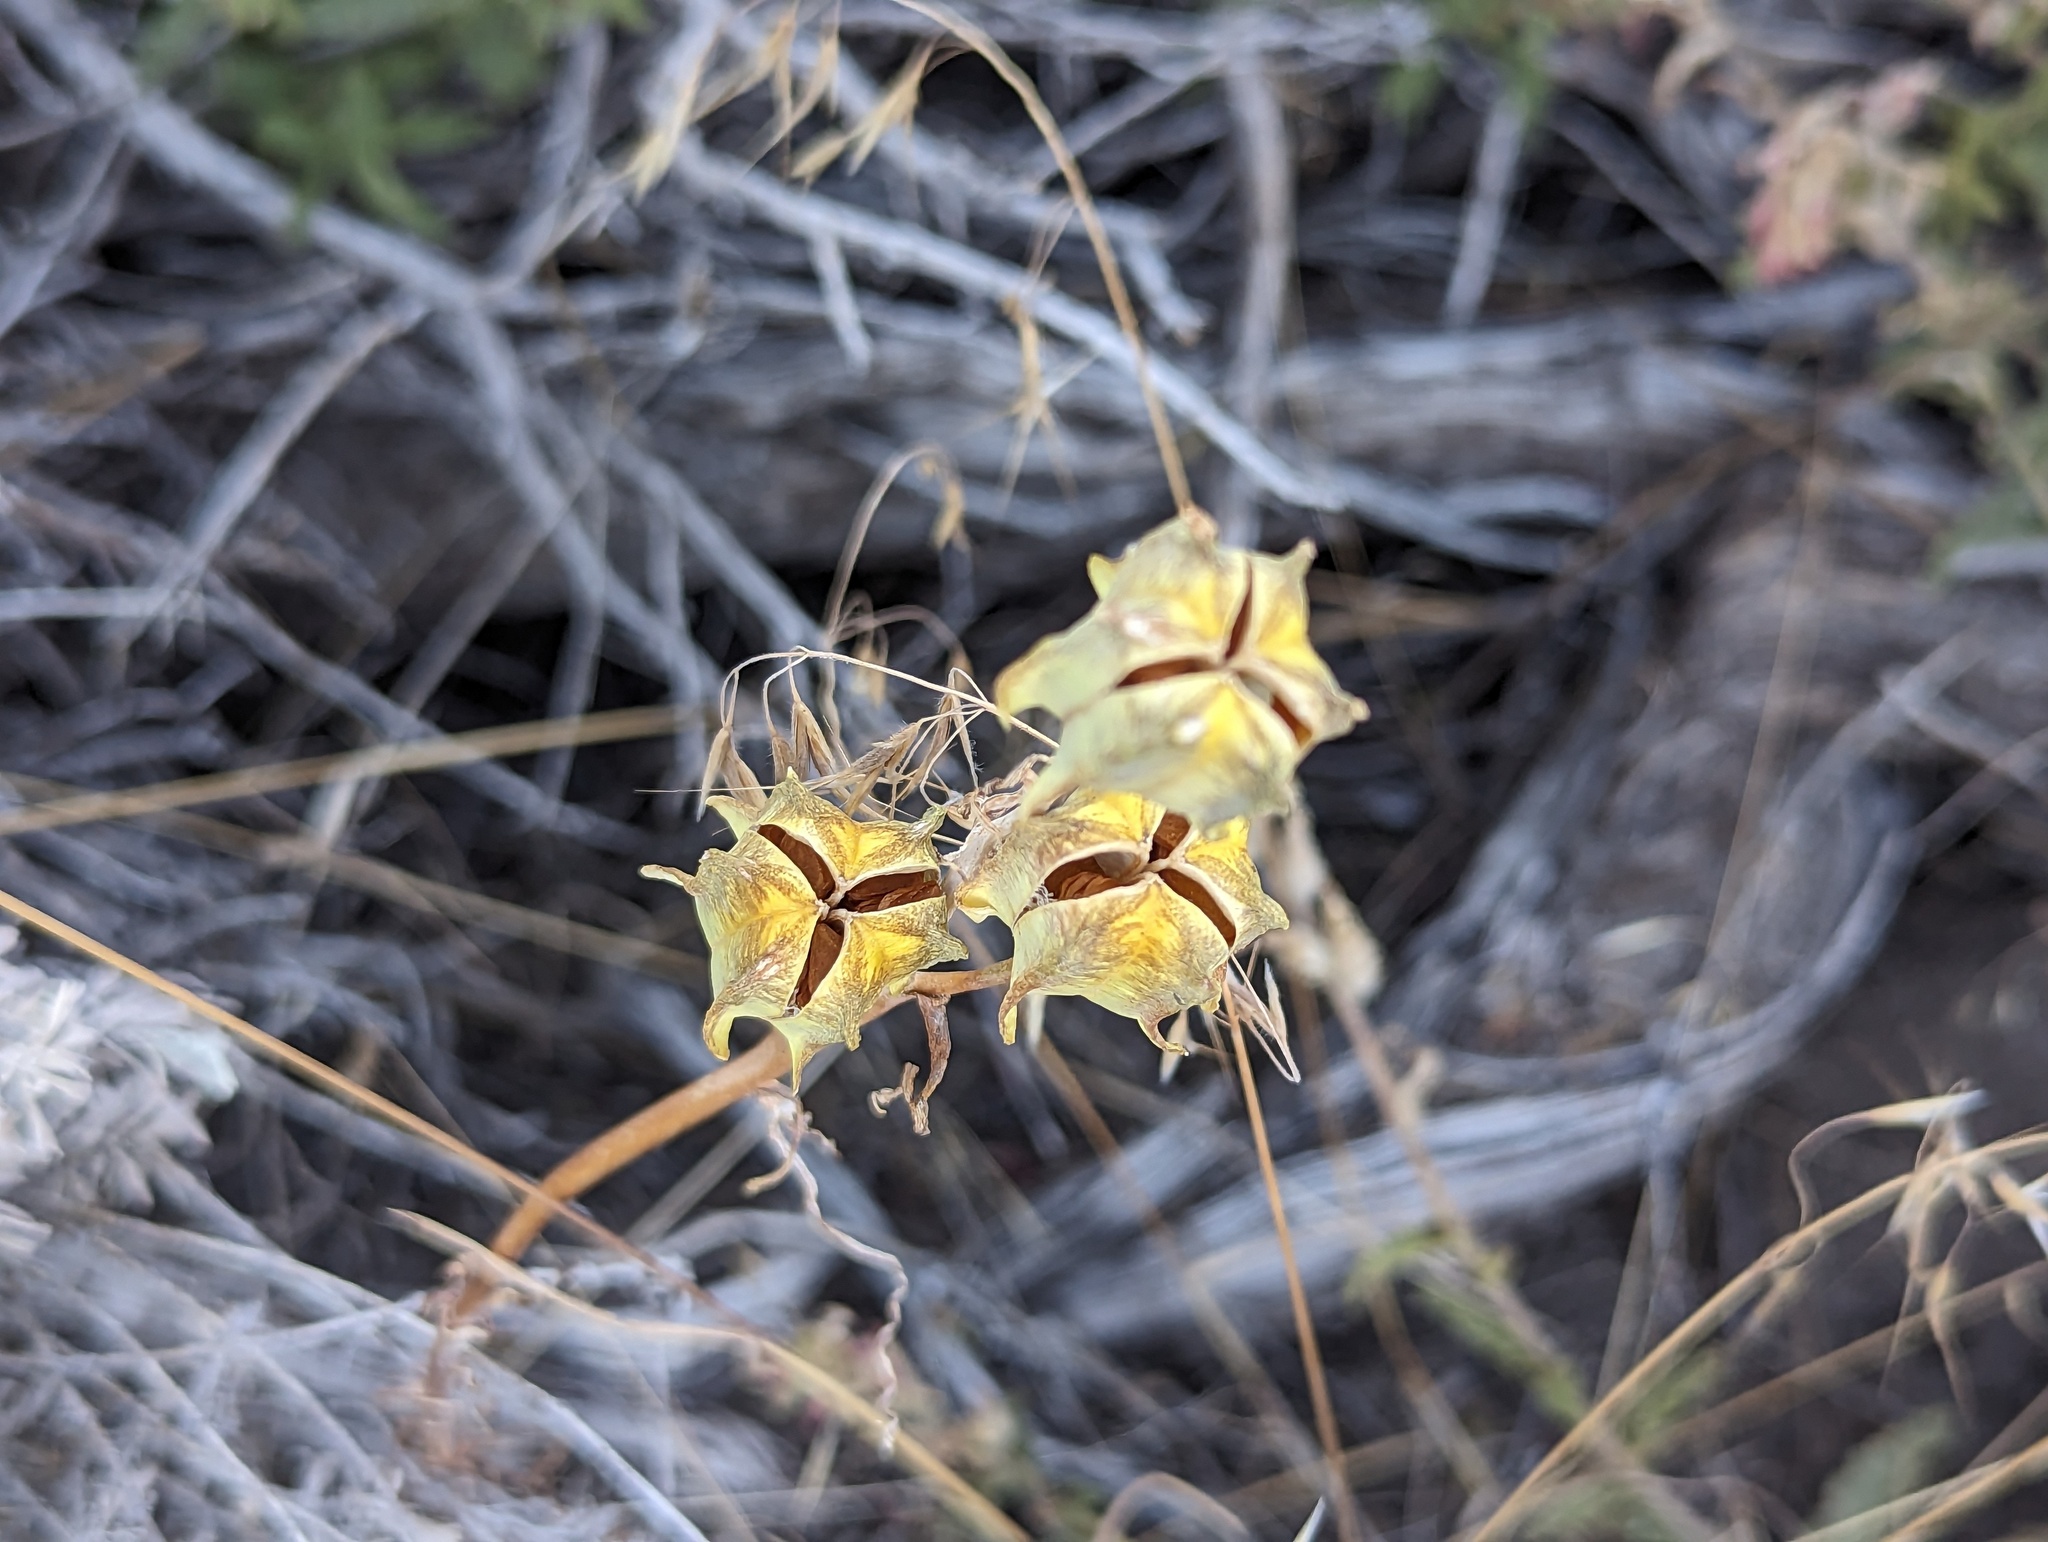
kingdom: Plantae
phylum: Tracheophyta
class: Liliopsida
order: Liliales
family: Liliaceae
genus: Fritillaria
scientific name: Fritillaria atropurpurea
